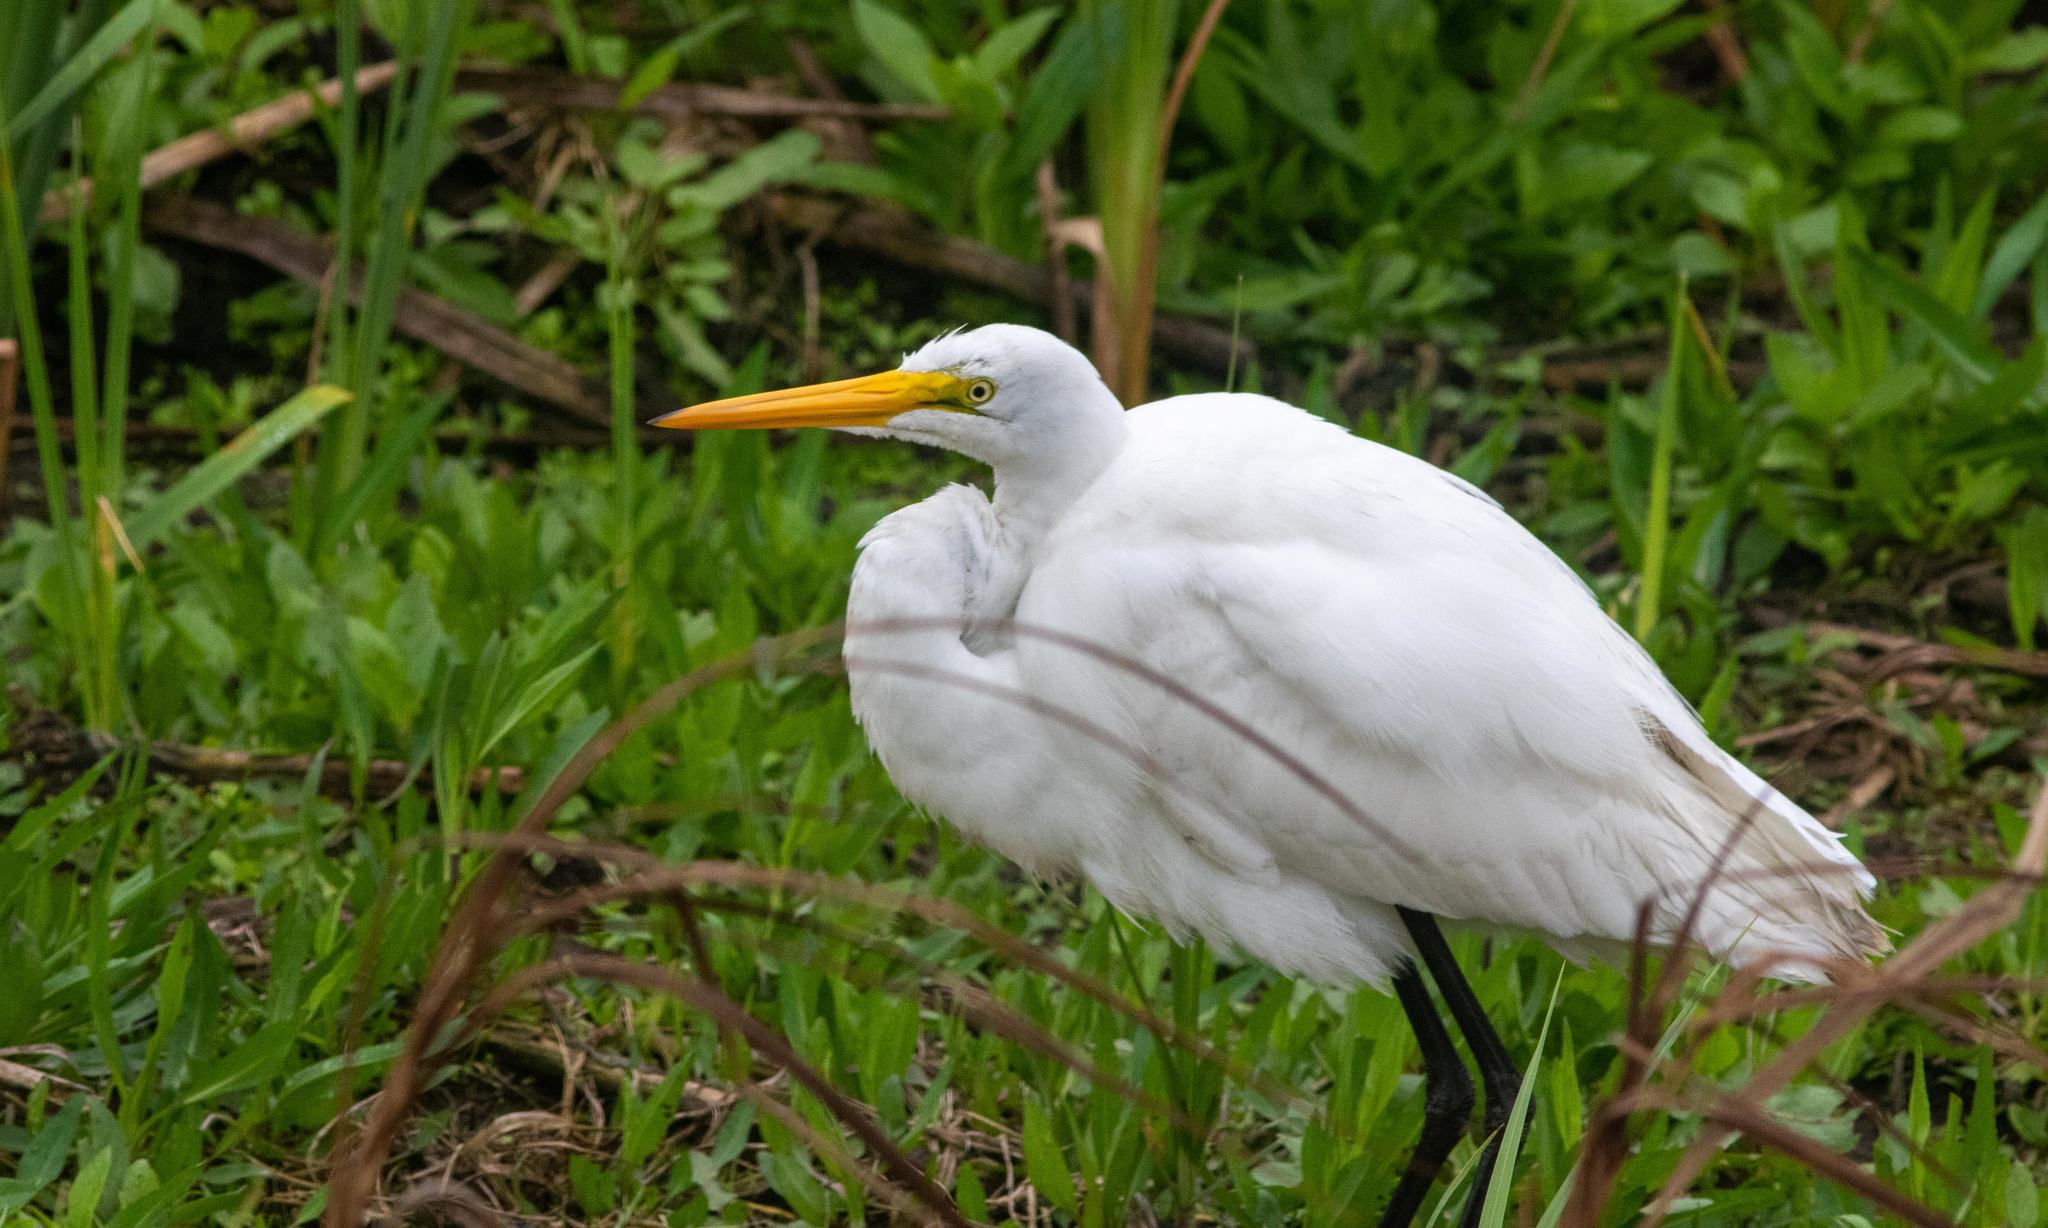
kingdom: Animalia
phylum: Chordata
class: Aves
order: Pelecaniformes
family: Ardeidae
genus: Ardea
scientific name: Ardea alba
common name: Great egret
